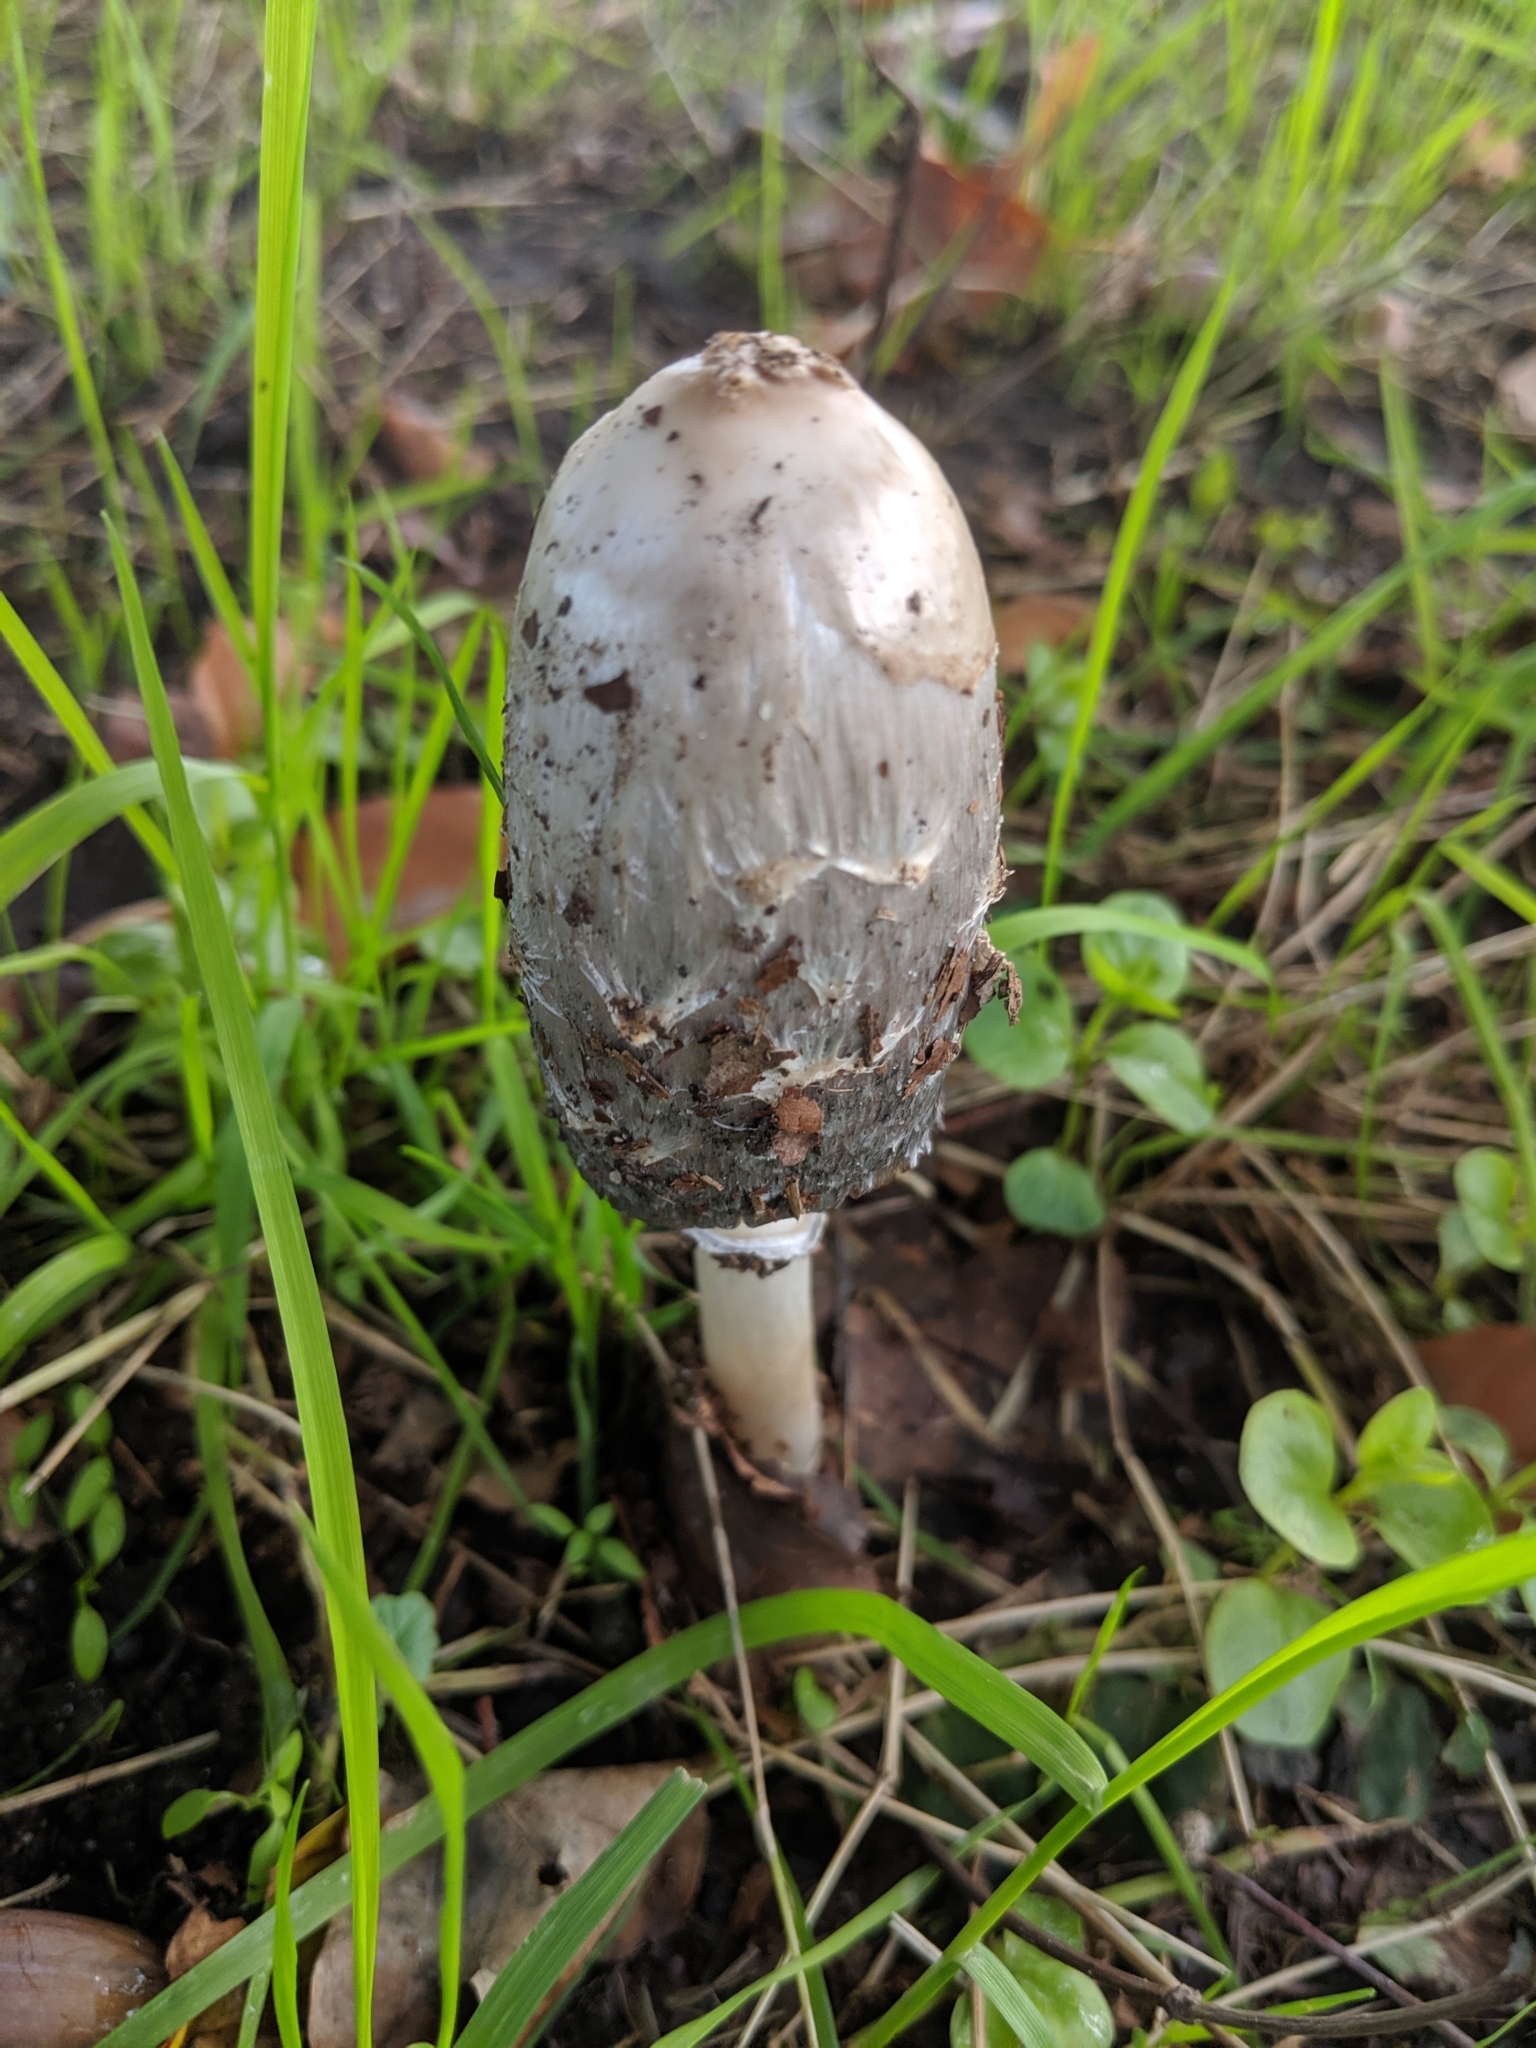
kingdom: Fungi
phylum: Basidiomycota
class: Agaricomycetes
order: Agaricales
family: Agaricaceae
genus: Coprinus
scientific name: Coprinus comatus
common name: Lawyer's wig
